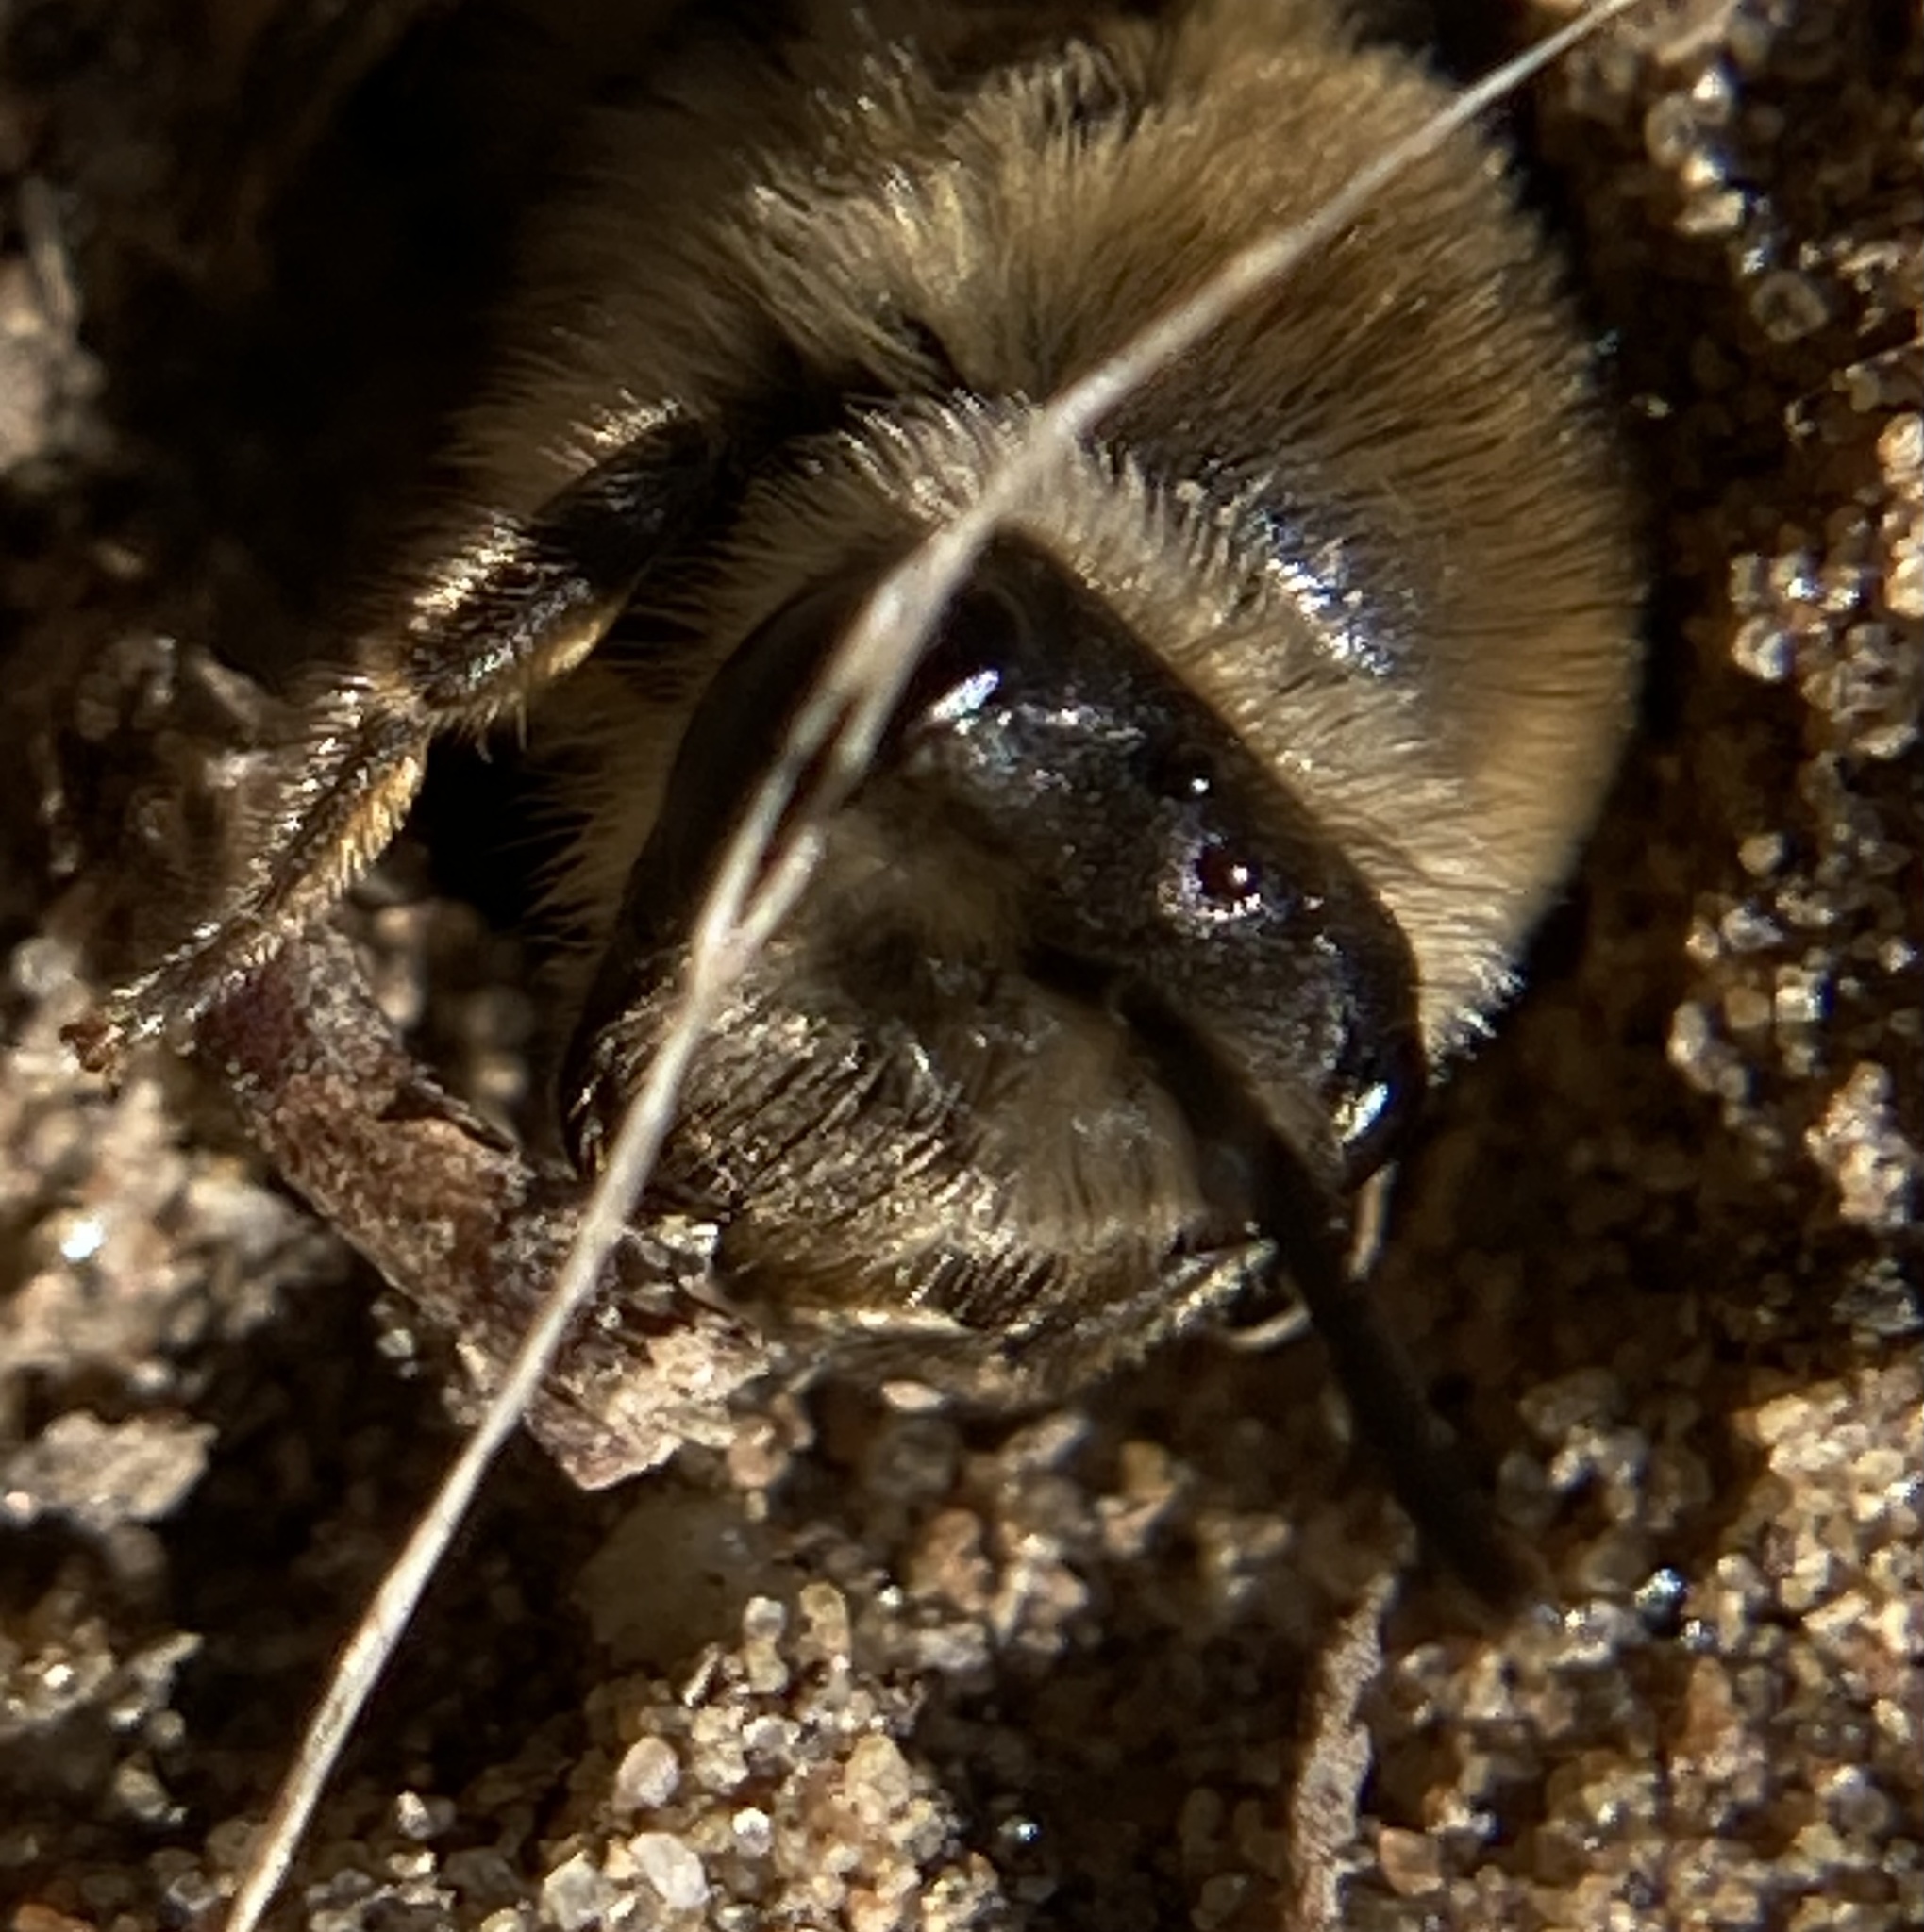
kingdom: Animalia
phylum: Arthropoda
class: Insecta
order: Hymenoptera
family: Colletidae
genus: Colletes
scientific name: Colletes inaequalis
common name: Unequal cellophane bee
